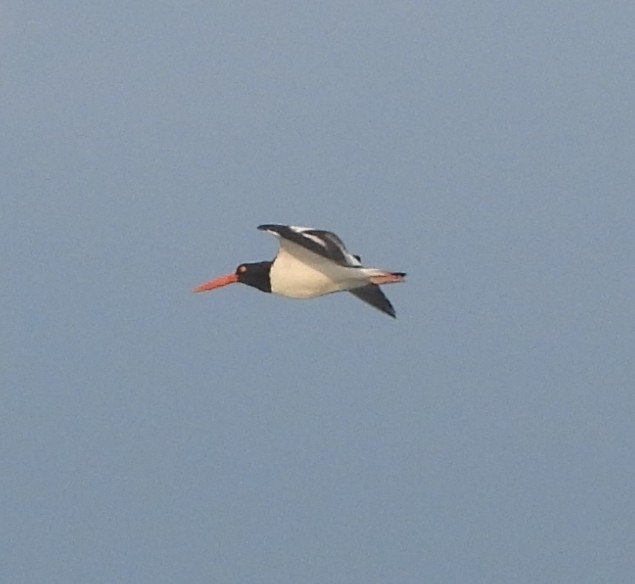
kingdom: Animalia
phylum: Chordata
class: Aves
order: Charadriiformes
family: Haematopodidae
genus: Haematopus
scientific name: Haematopus palliatus
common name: American oystercatcher
